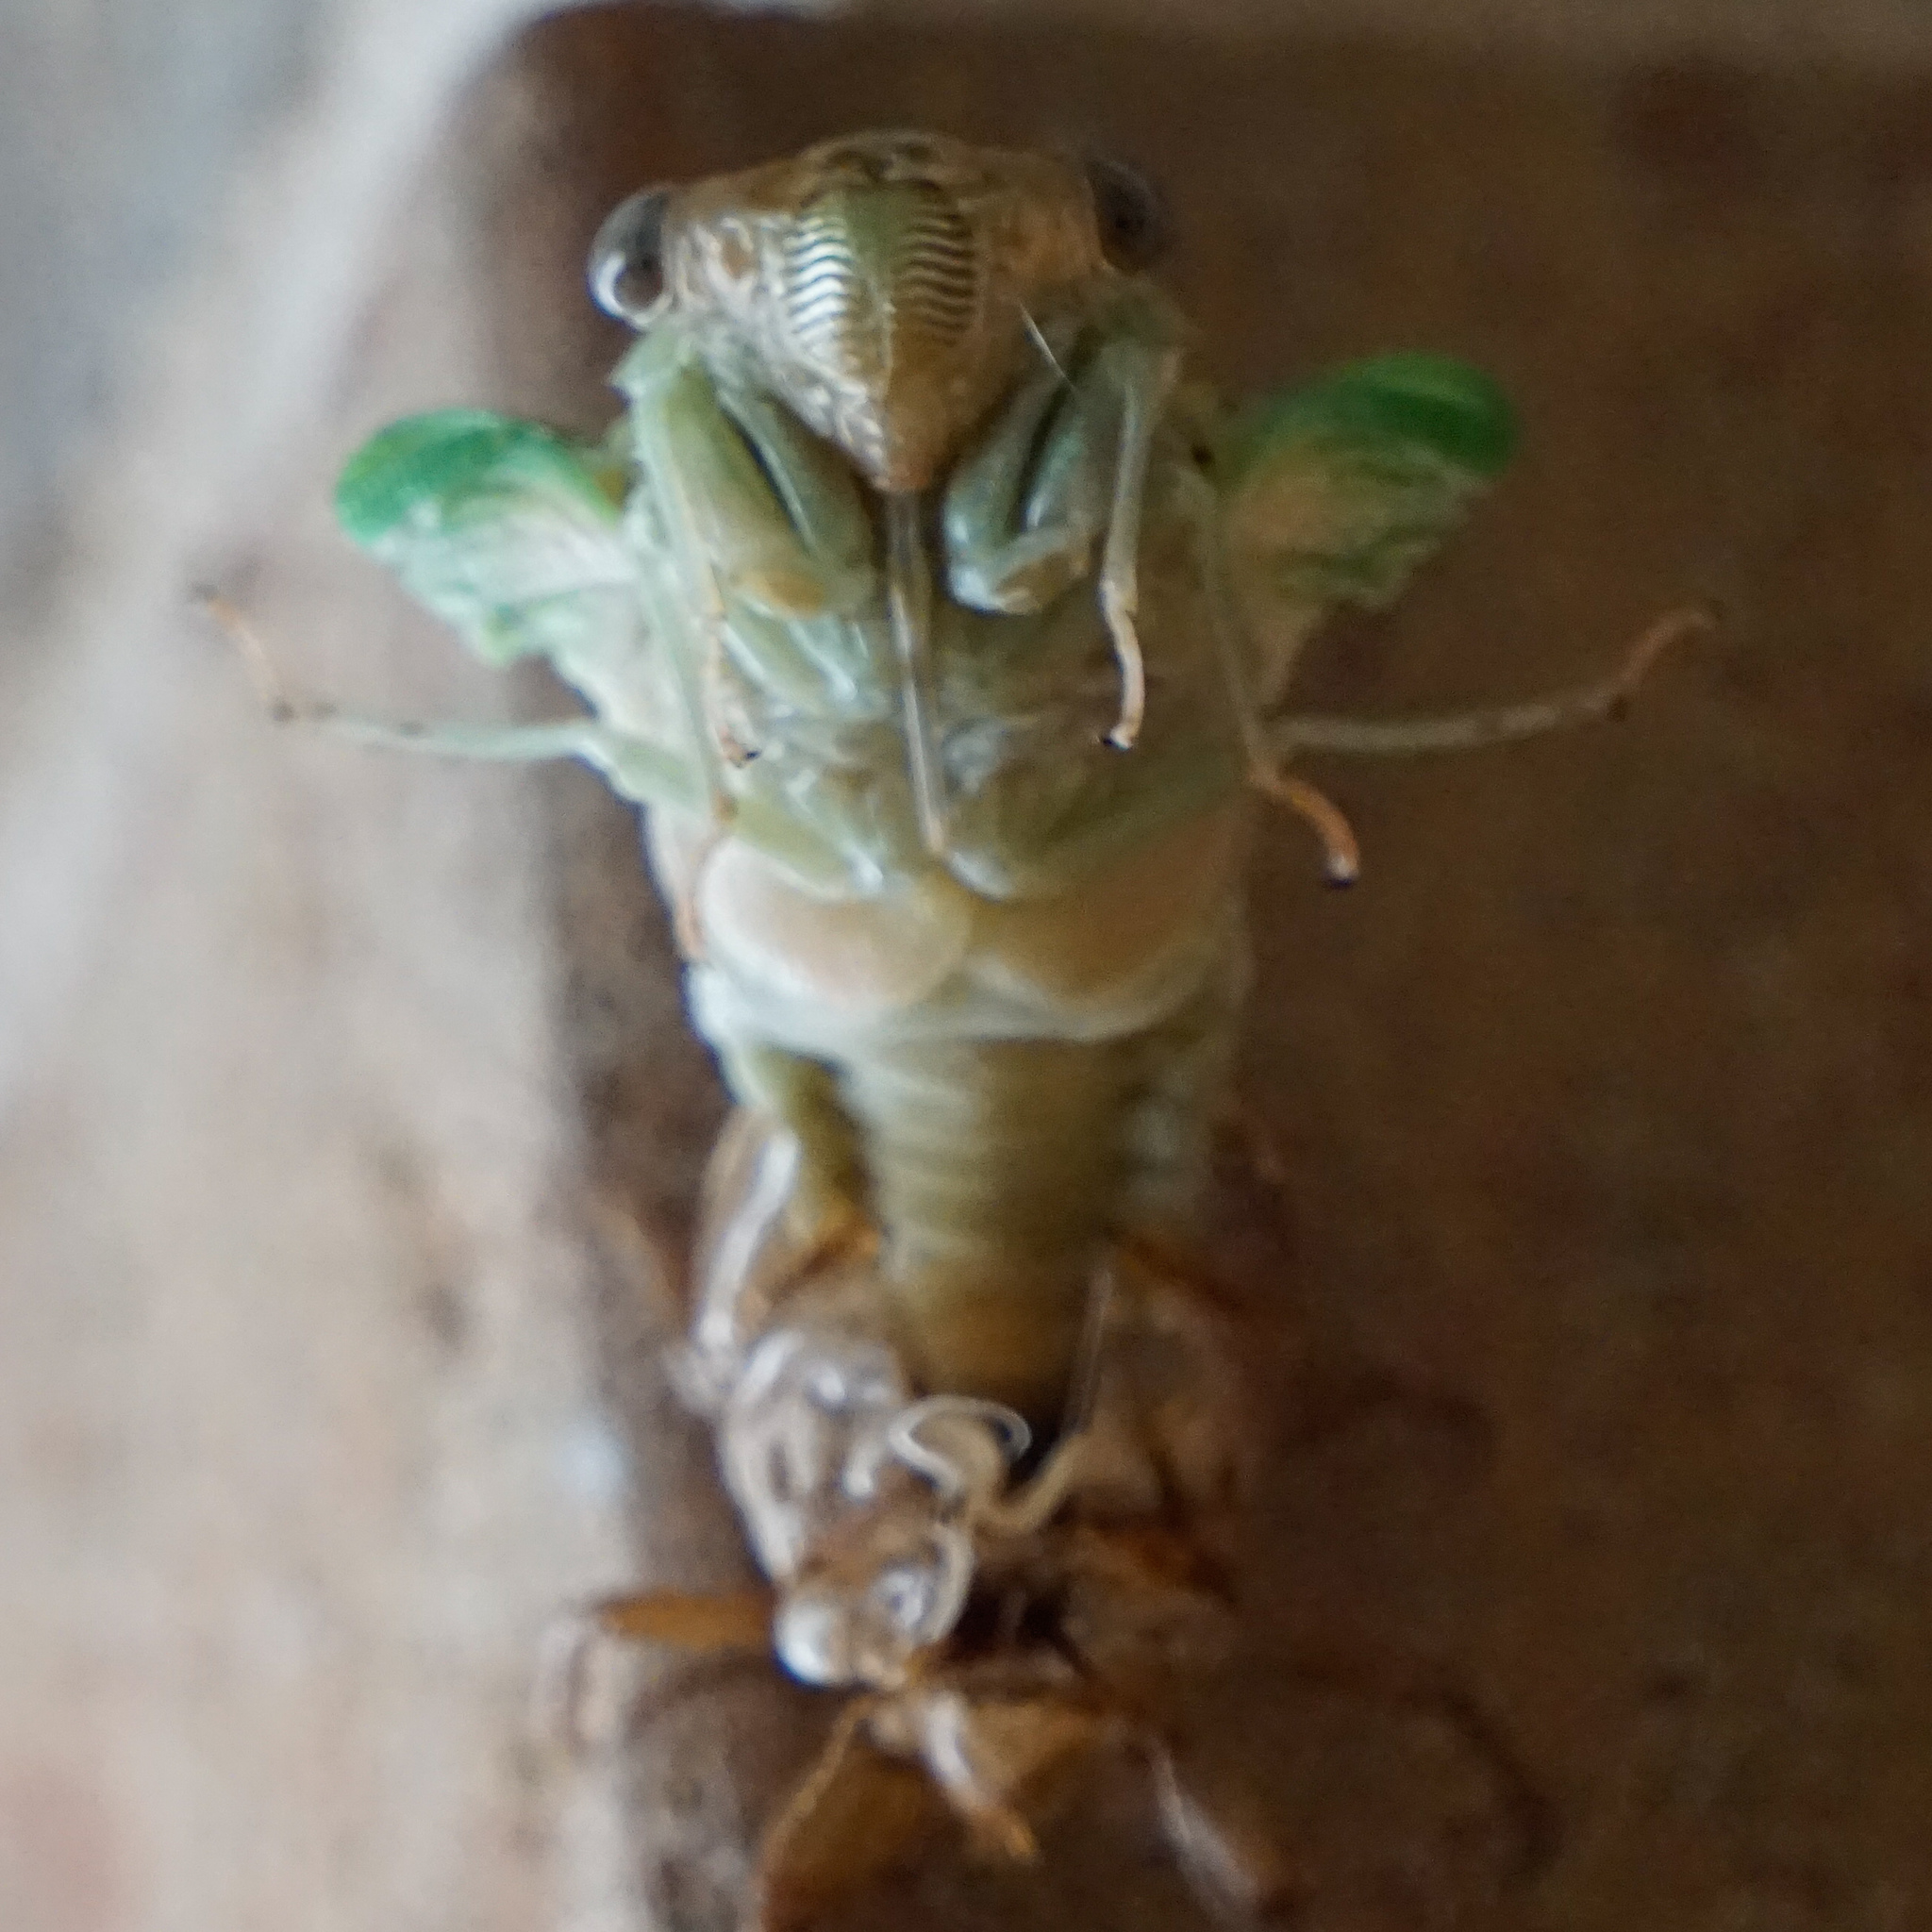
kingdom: Animalia
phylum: Arthropoda
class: Insecta
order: Hemiptera
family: Cicadidae
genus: Megatibicen
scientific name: Megatibicen resh
